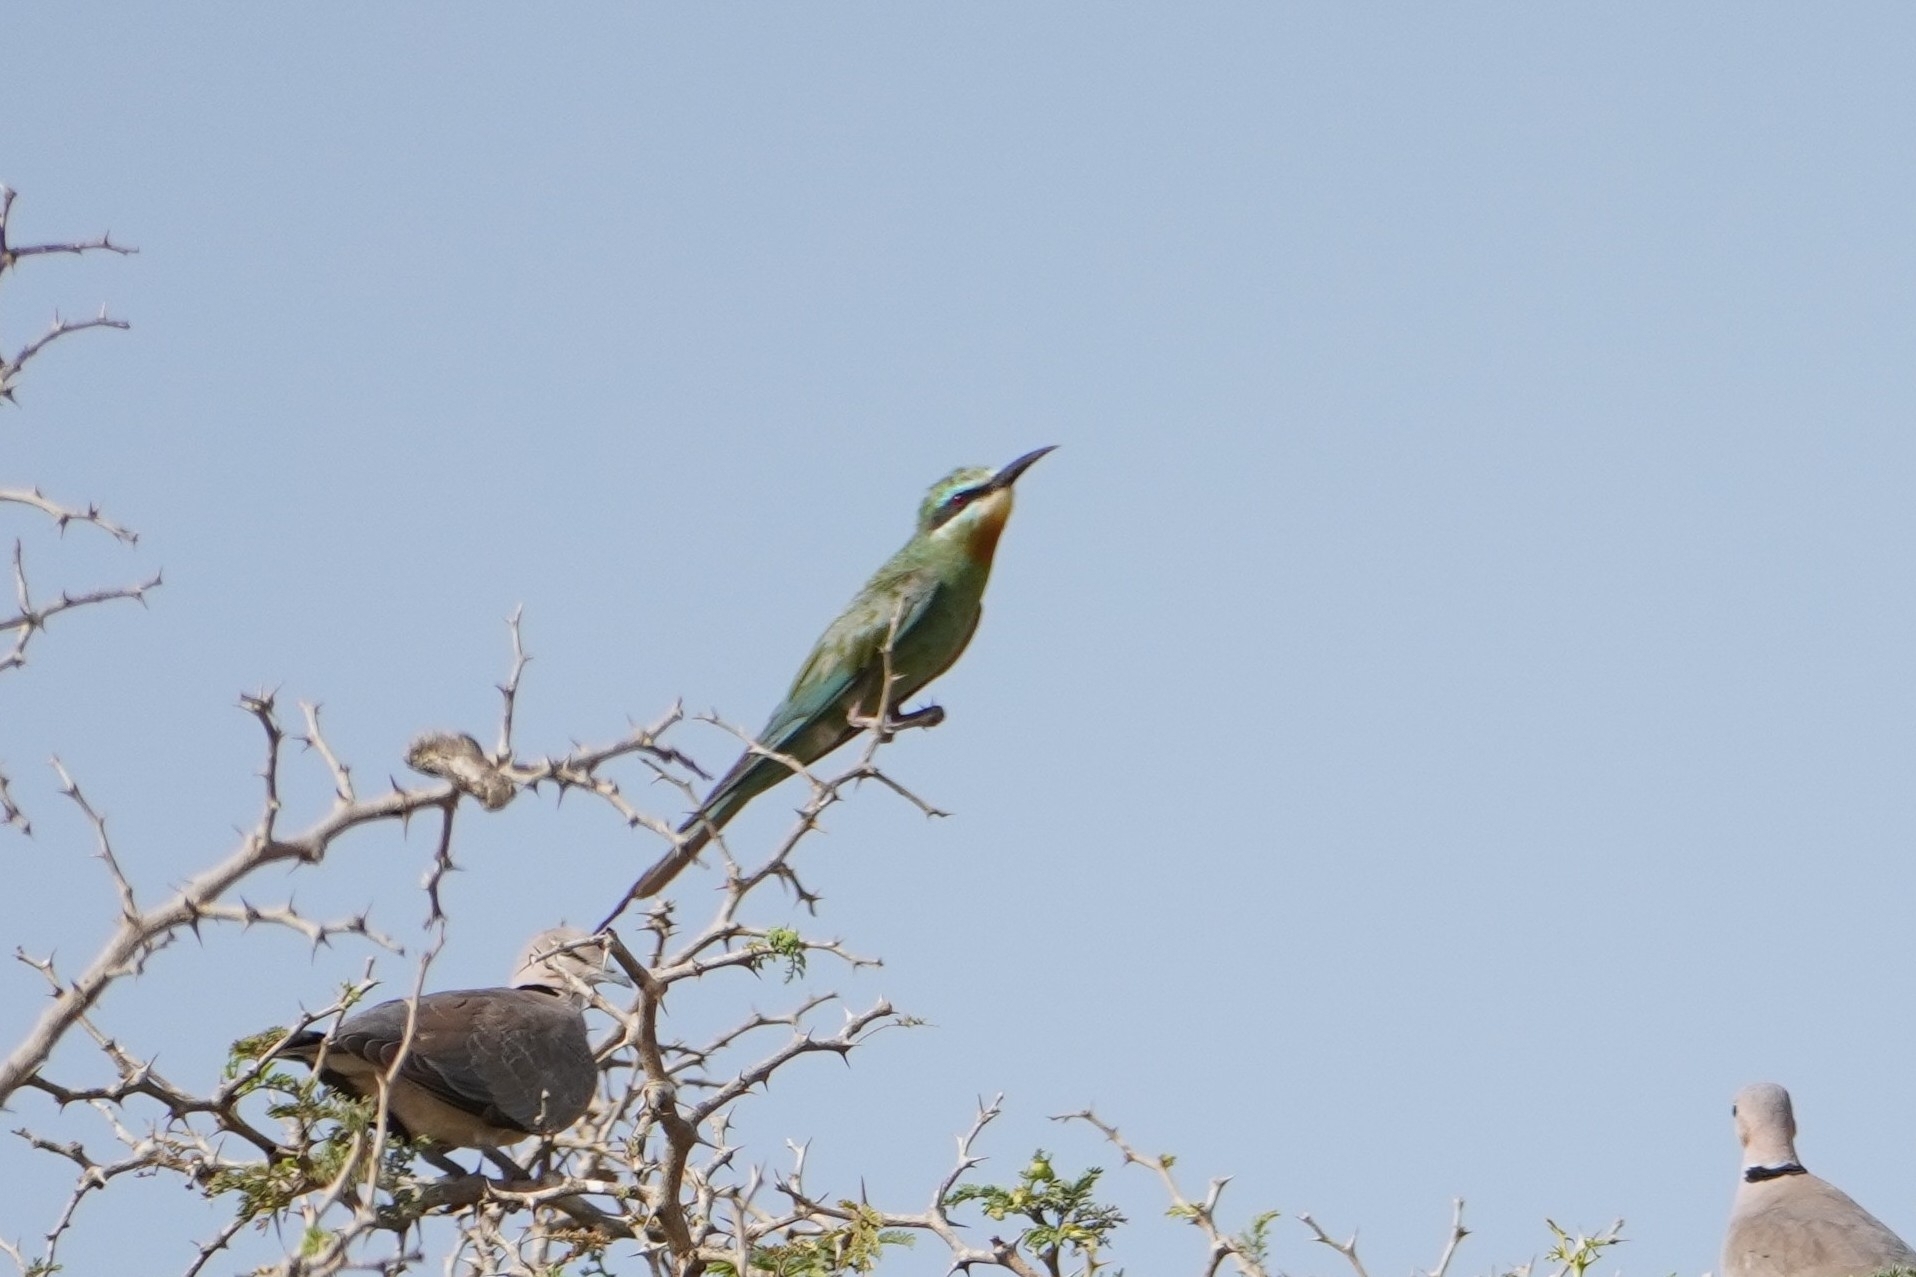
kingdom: Animalia
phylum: Chordata
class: Aves
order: Coraciiformes
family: Meropidae
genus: Merops
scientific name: Merops persicus
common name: Blue-cheeked bee-eater
